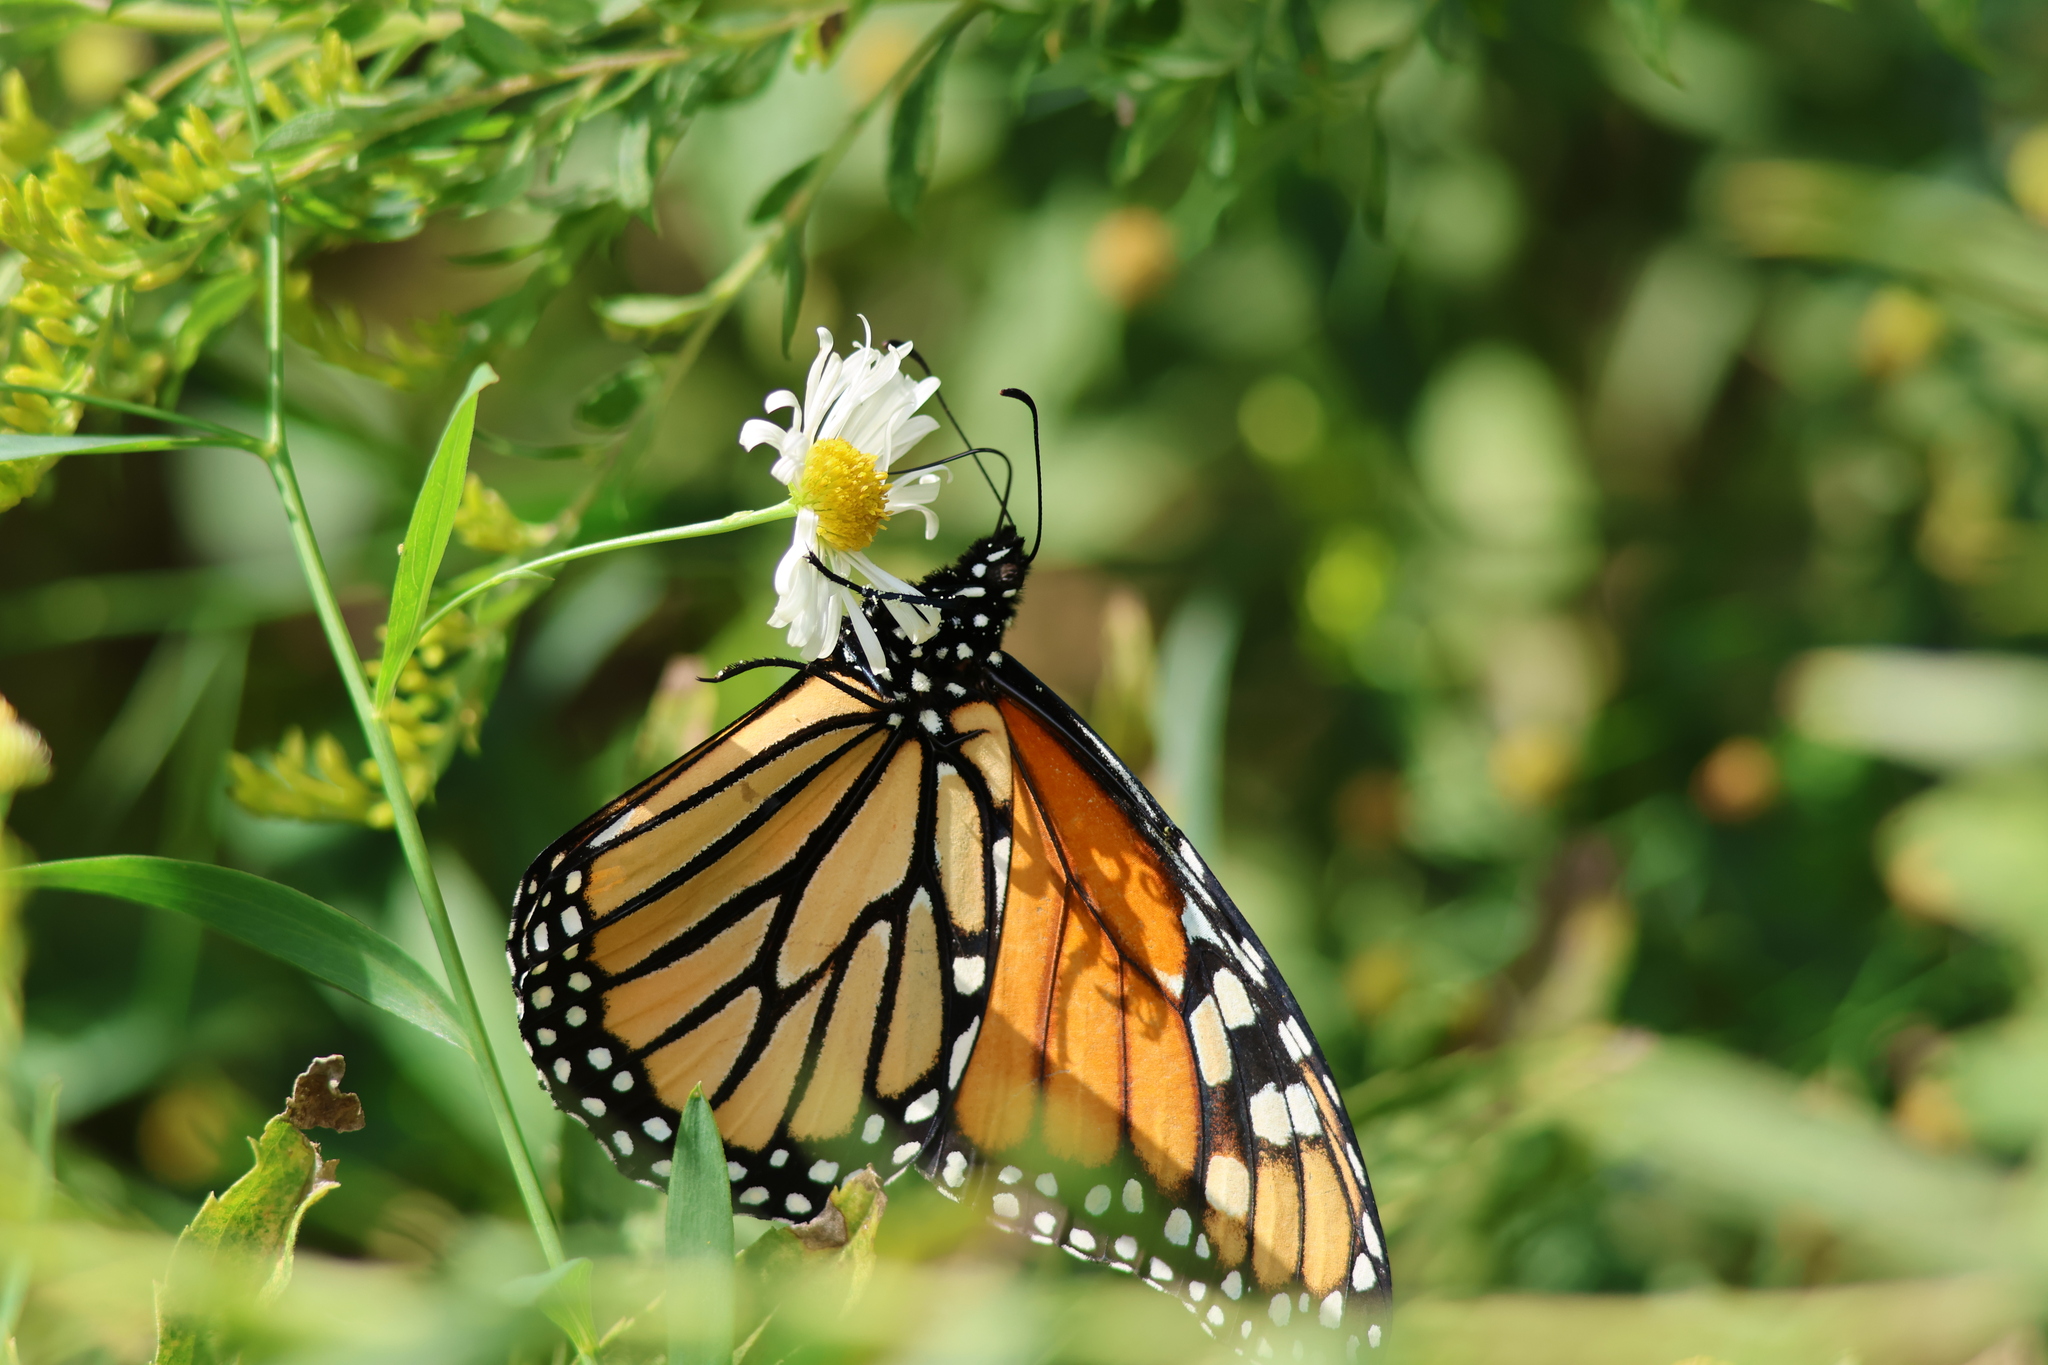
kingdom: Animalia
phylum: Arthropoda
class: Insecta
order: Lepidoptera
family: Nymphalidae
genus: Danaus
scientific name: Danaus plexippus
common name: Monarch
